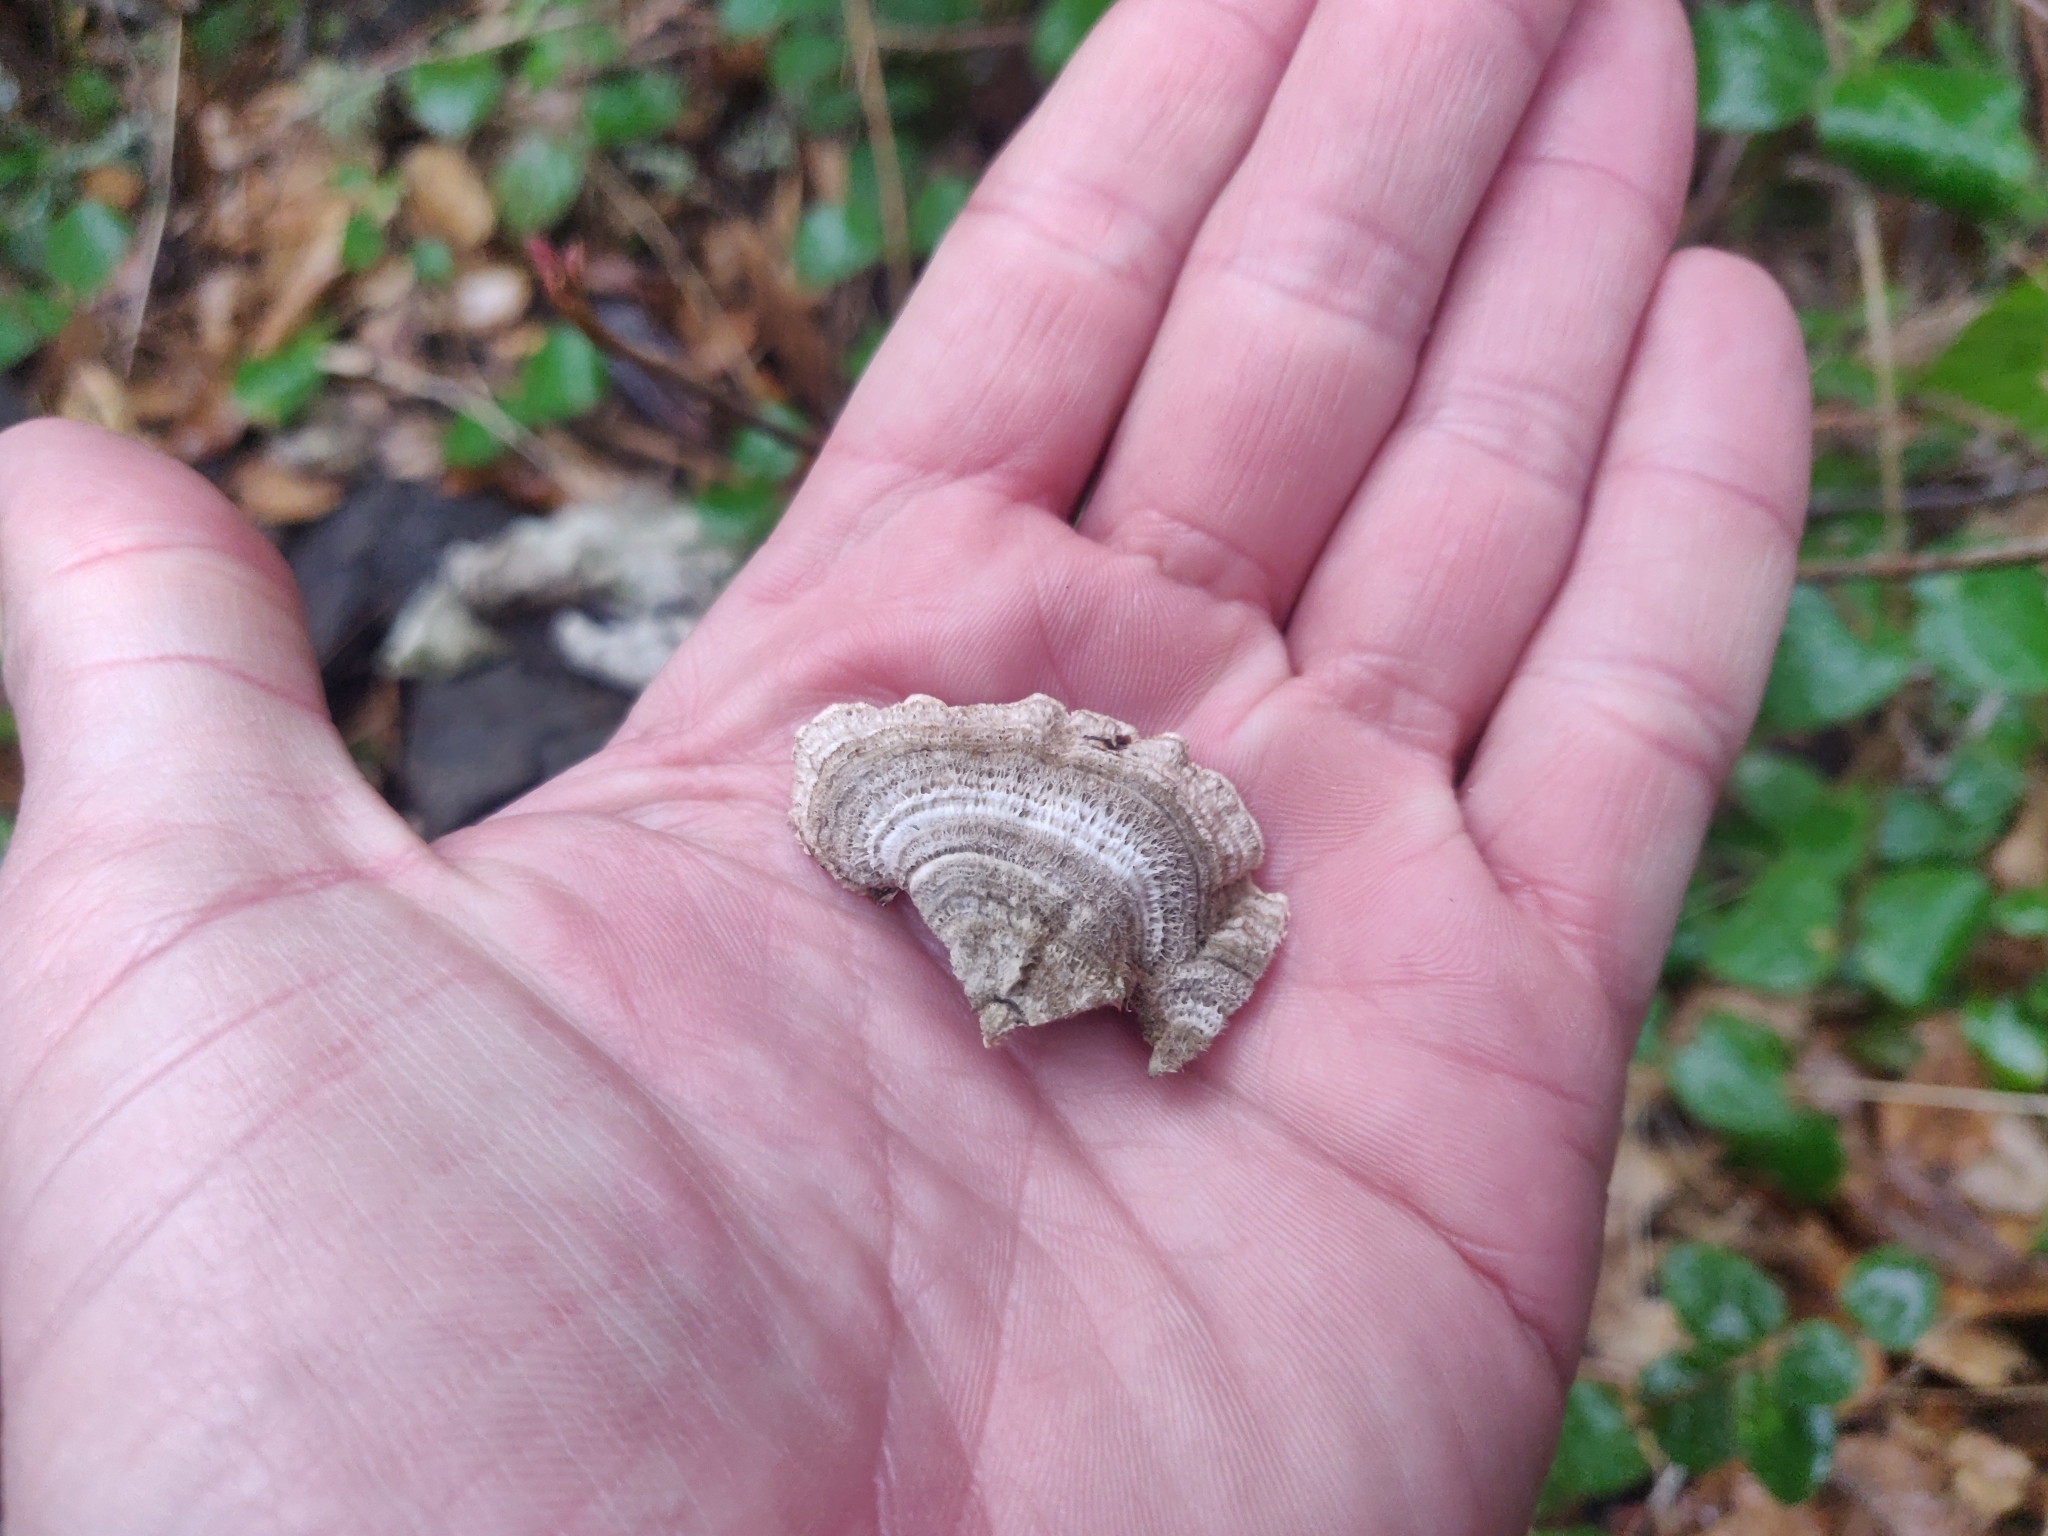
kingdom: Fungi
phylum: Basidiomycota
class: Agaricomycetes
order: Polyporales
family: Polyporaceae
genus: Trametes
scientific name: Trametes versicolor
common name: Turkeytail
